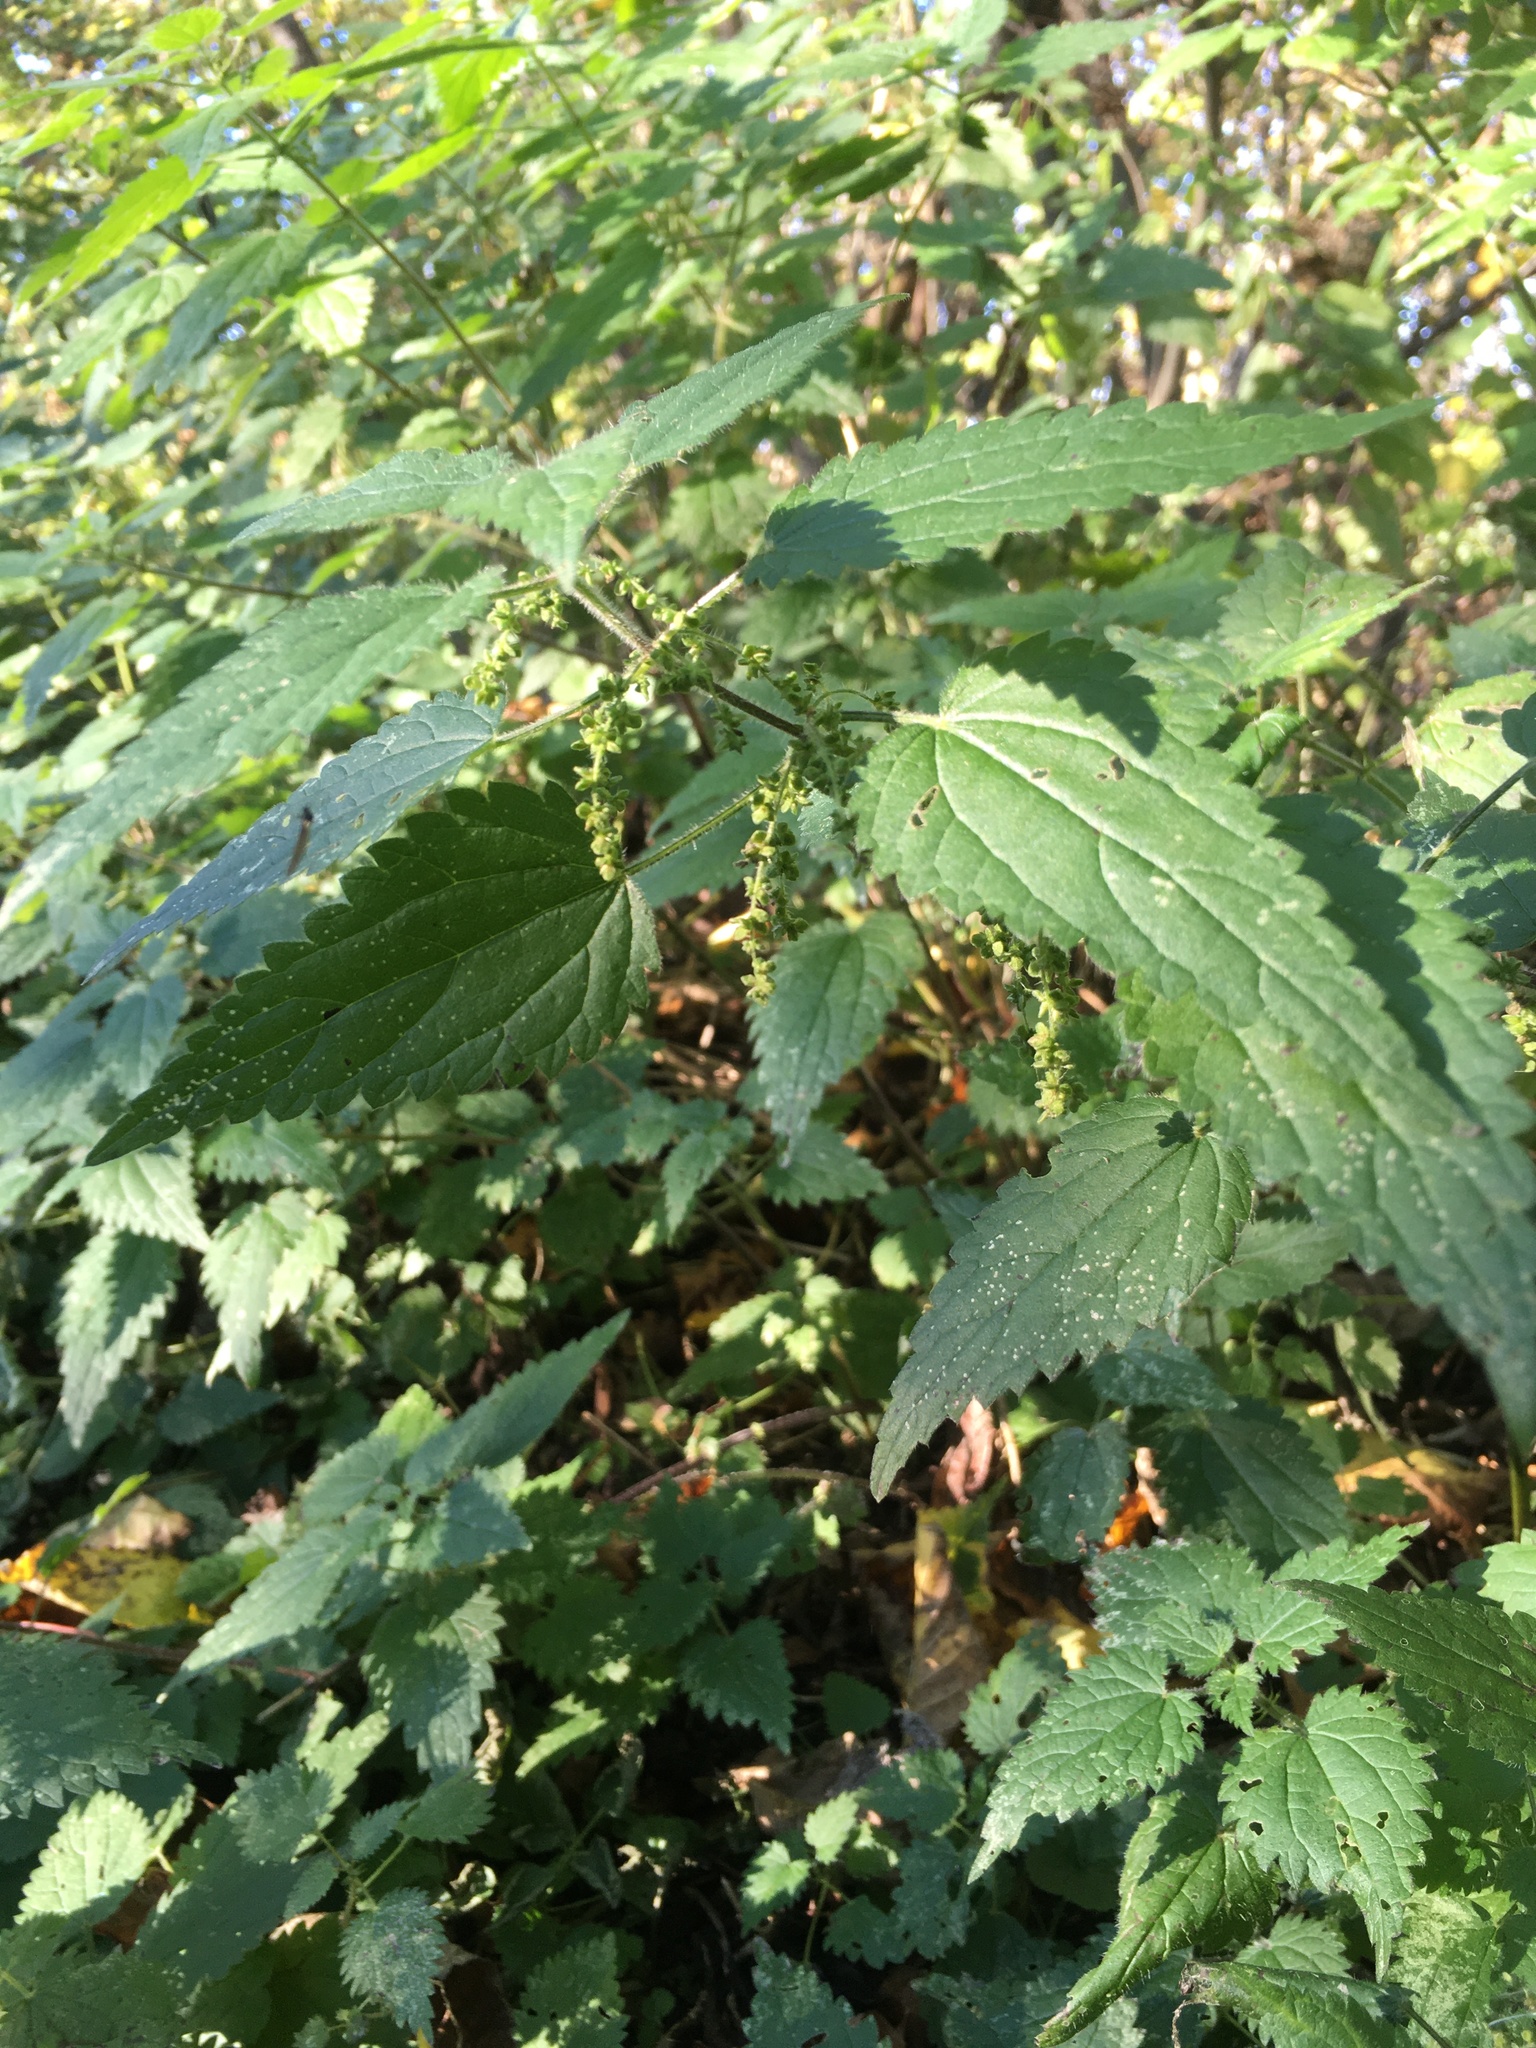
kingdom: Plantae
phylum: Tracheophyta
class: Magnoliopsida
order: Rosales
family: Urticaceae
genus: Urtica
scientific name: Urtica dioica
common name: Common nettle
